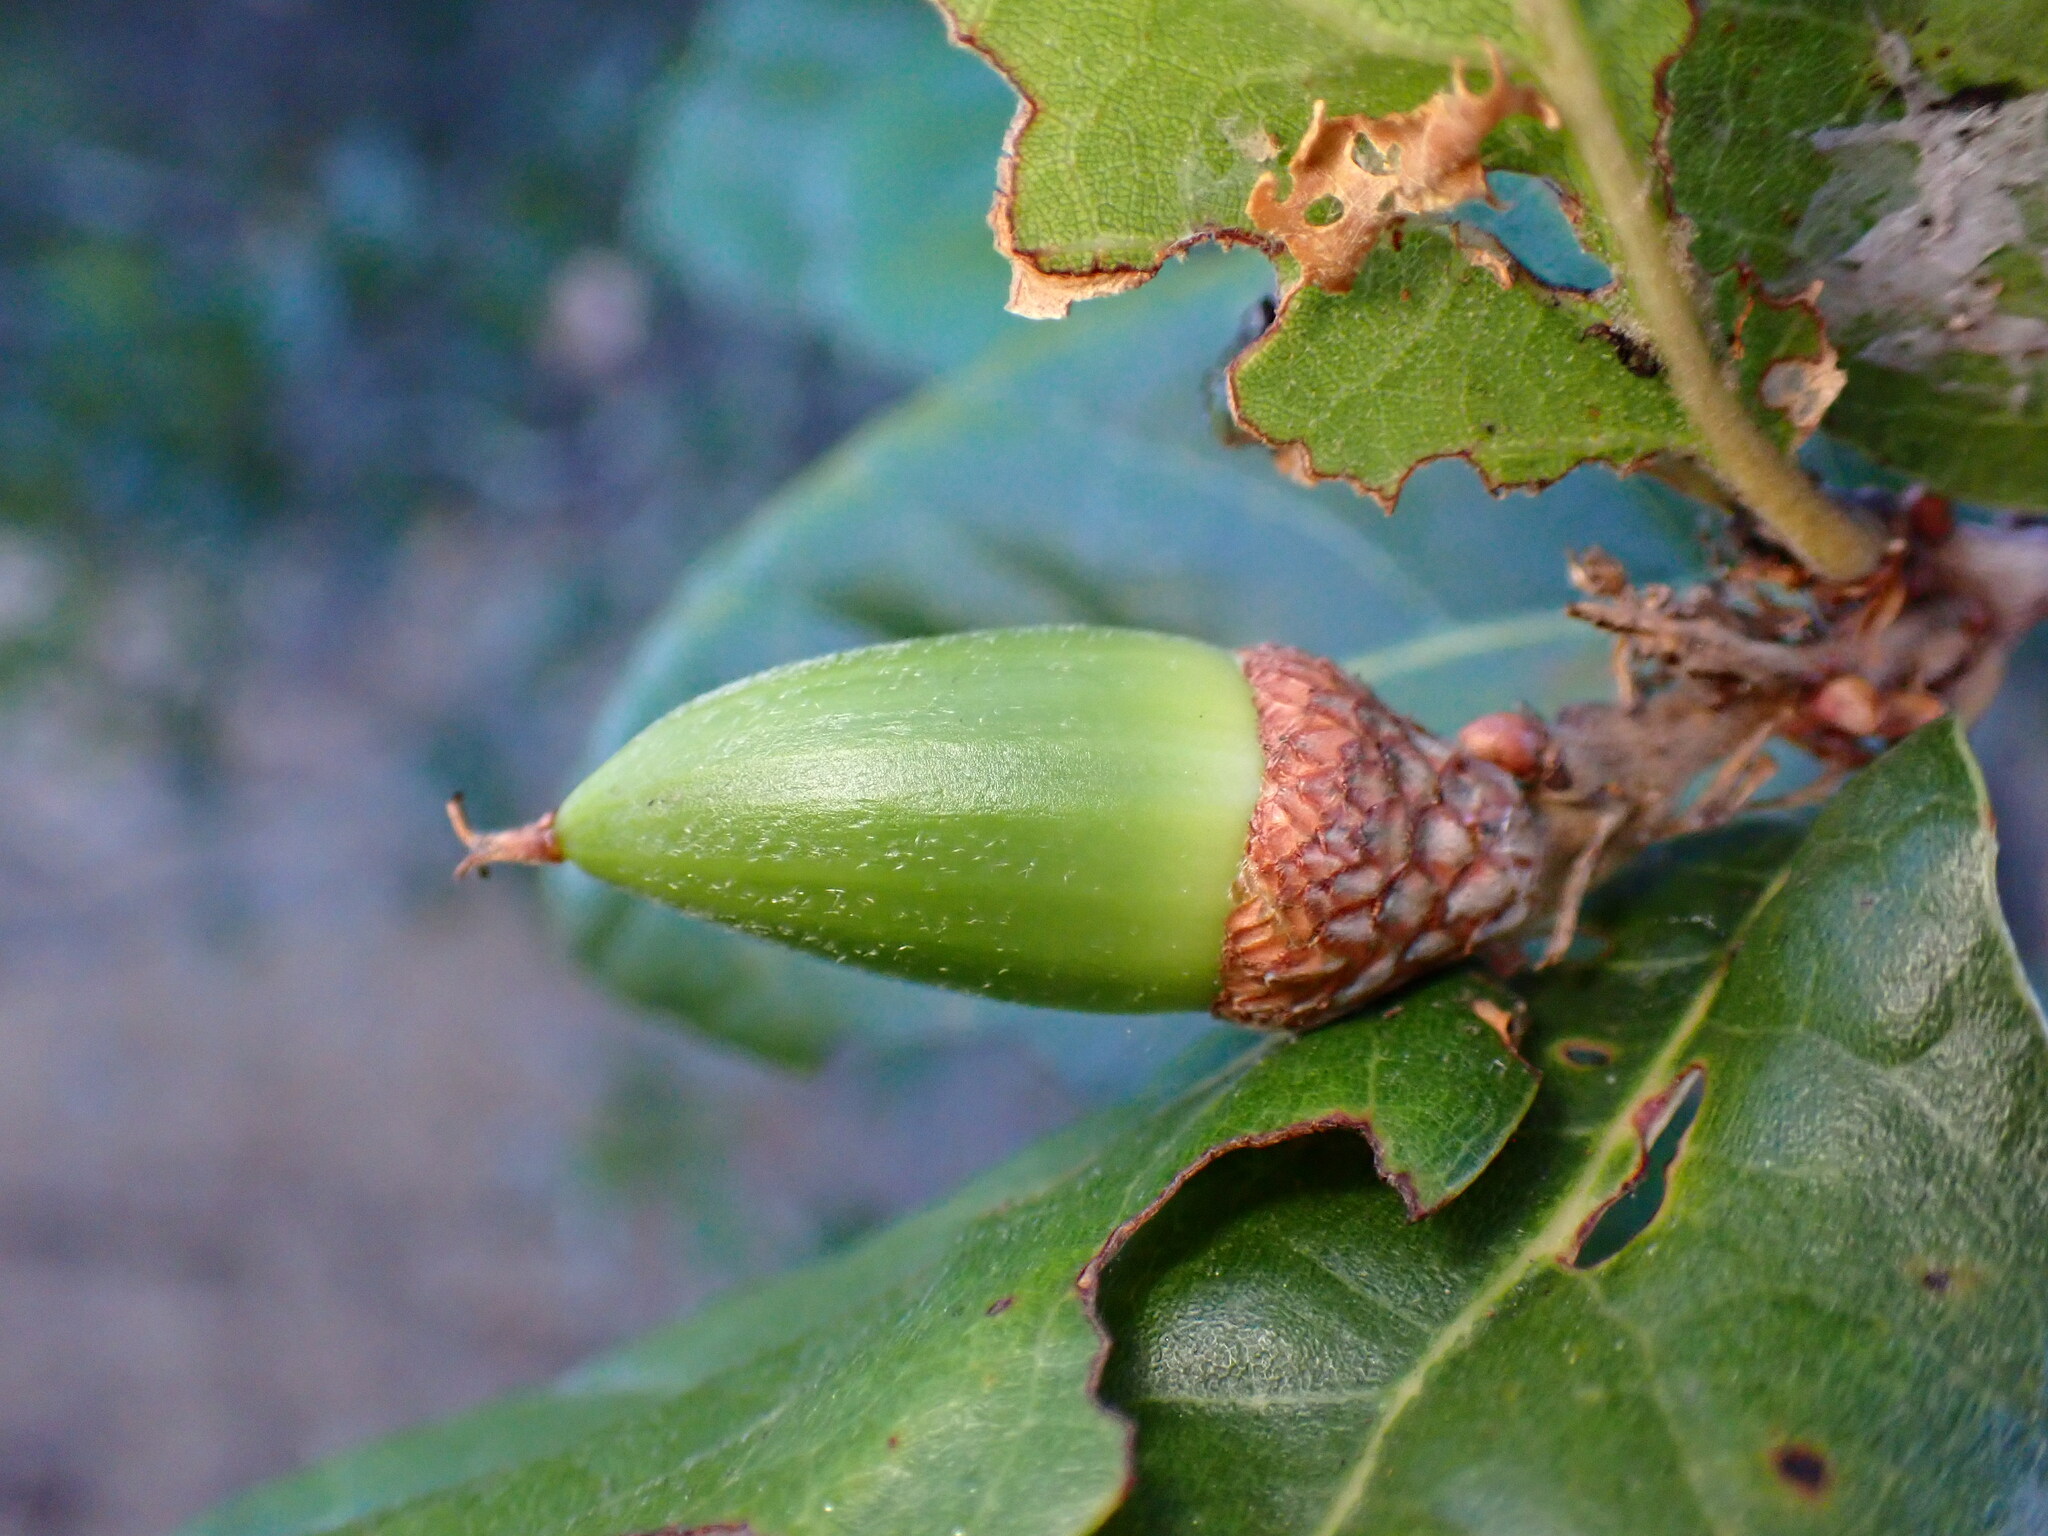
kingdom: Plantae
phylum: Tracheophyta
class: Magnoliopsida
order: Fagales
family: Fagaceae
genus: Quercus
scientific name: Quercus agrifolia
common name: California live oak
